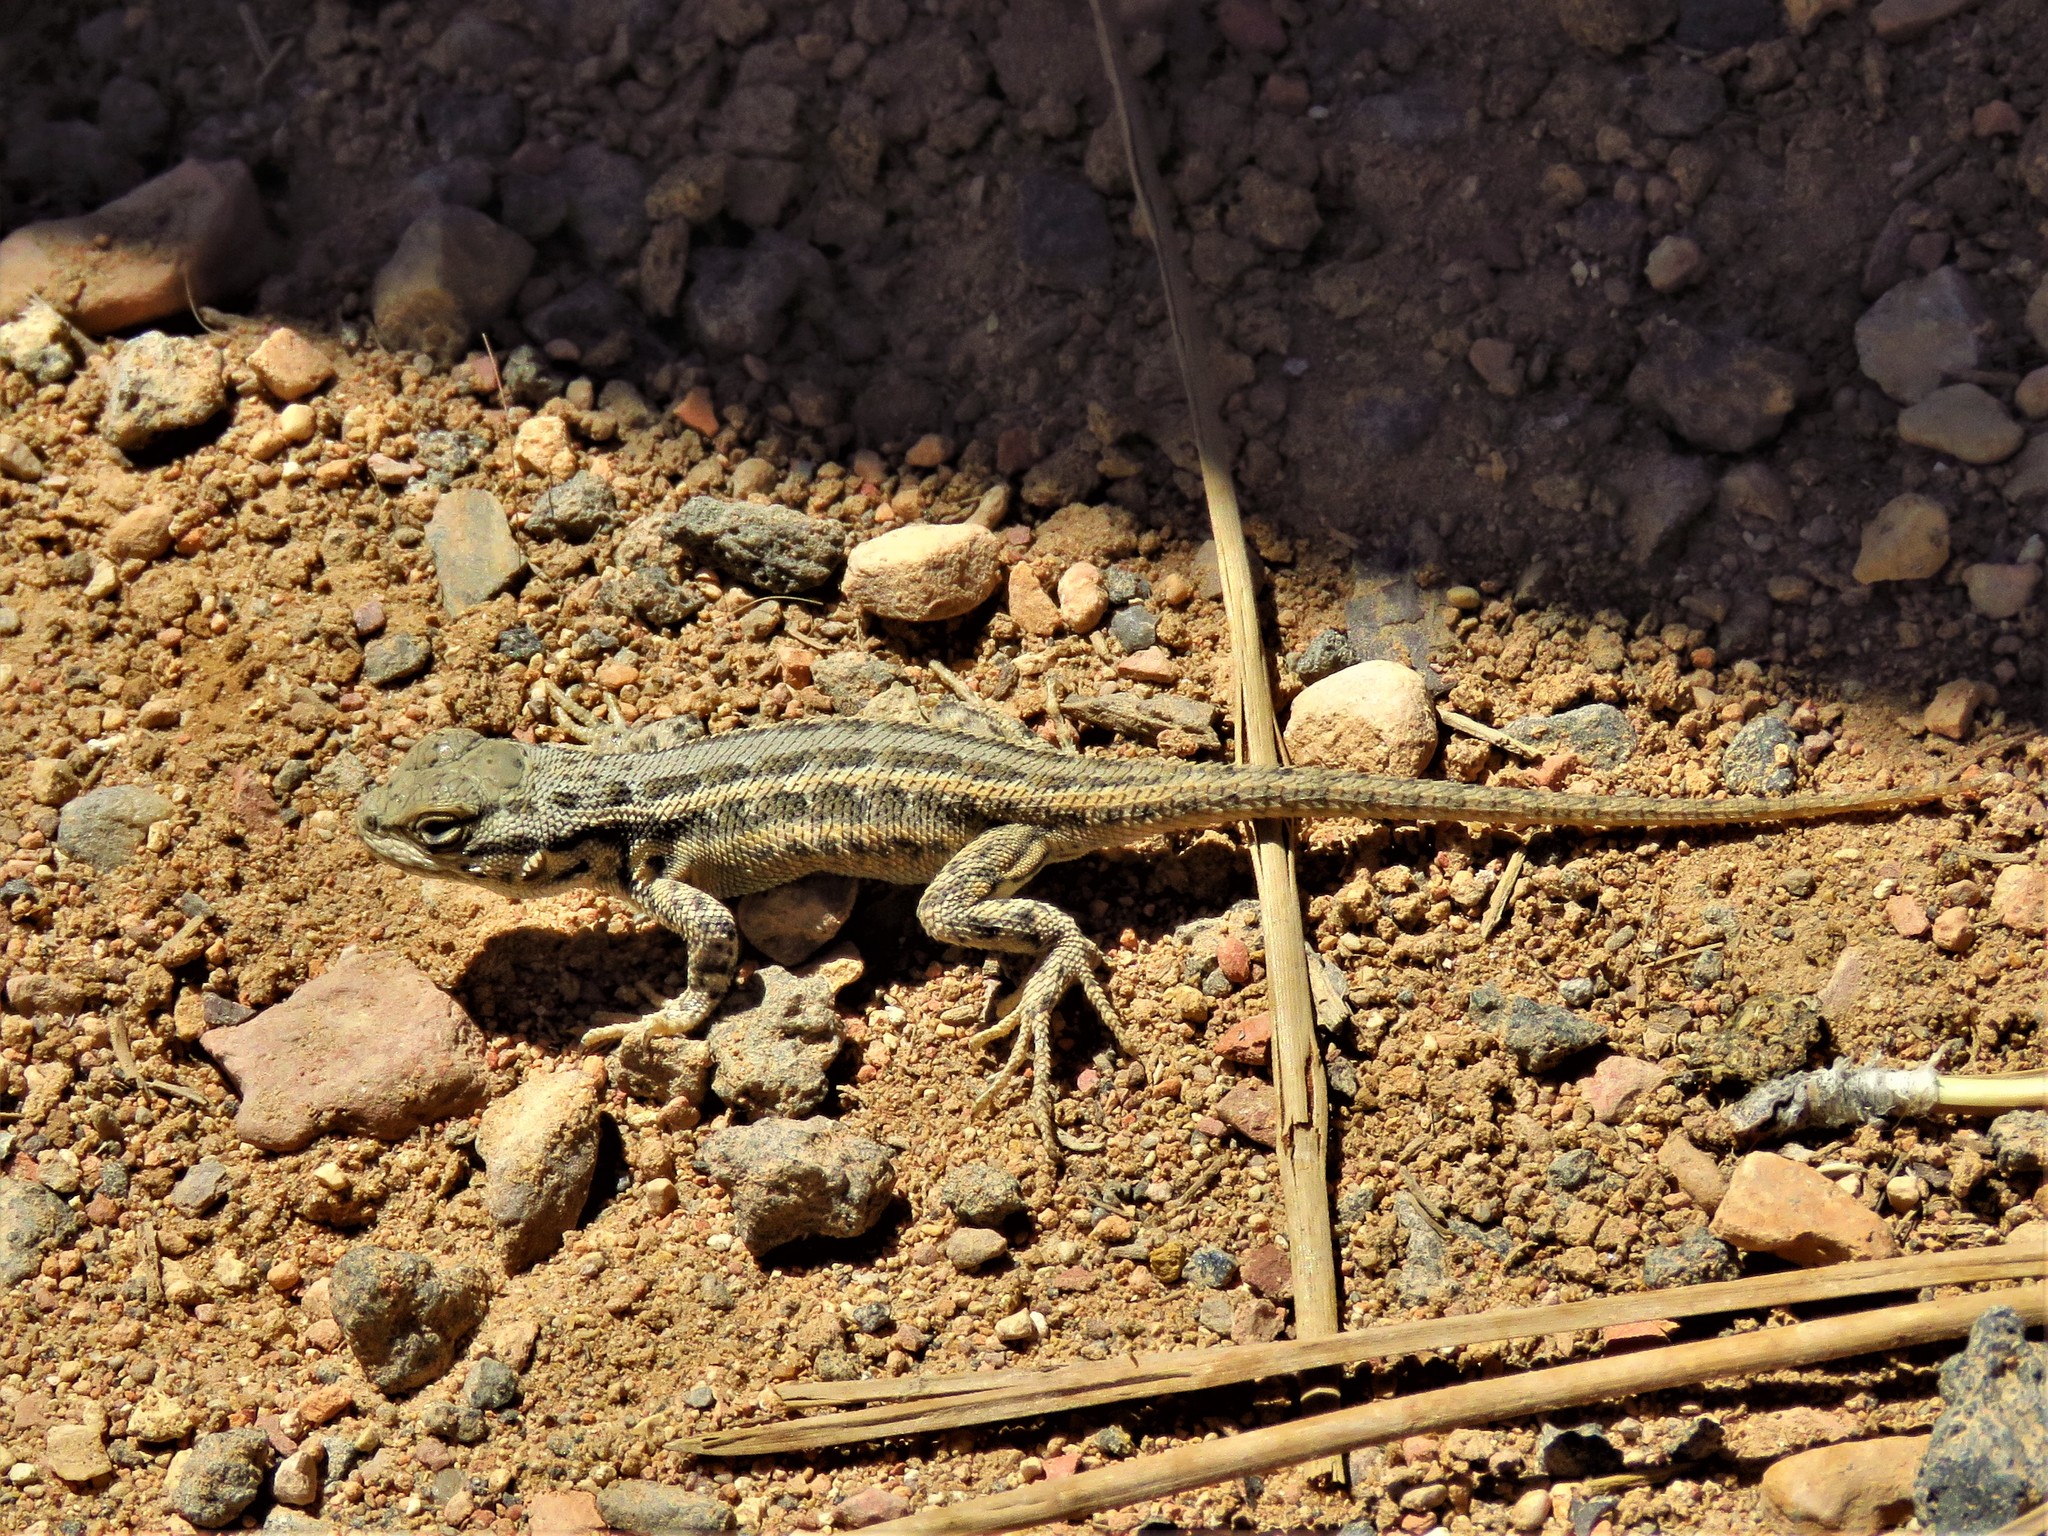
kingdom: Animalia
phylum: Chordata
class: Squamata
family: Phrynosomatidae
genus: Sceloporus
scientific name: Sceloporus graciosus
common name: Sagebrush lizard
